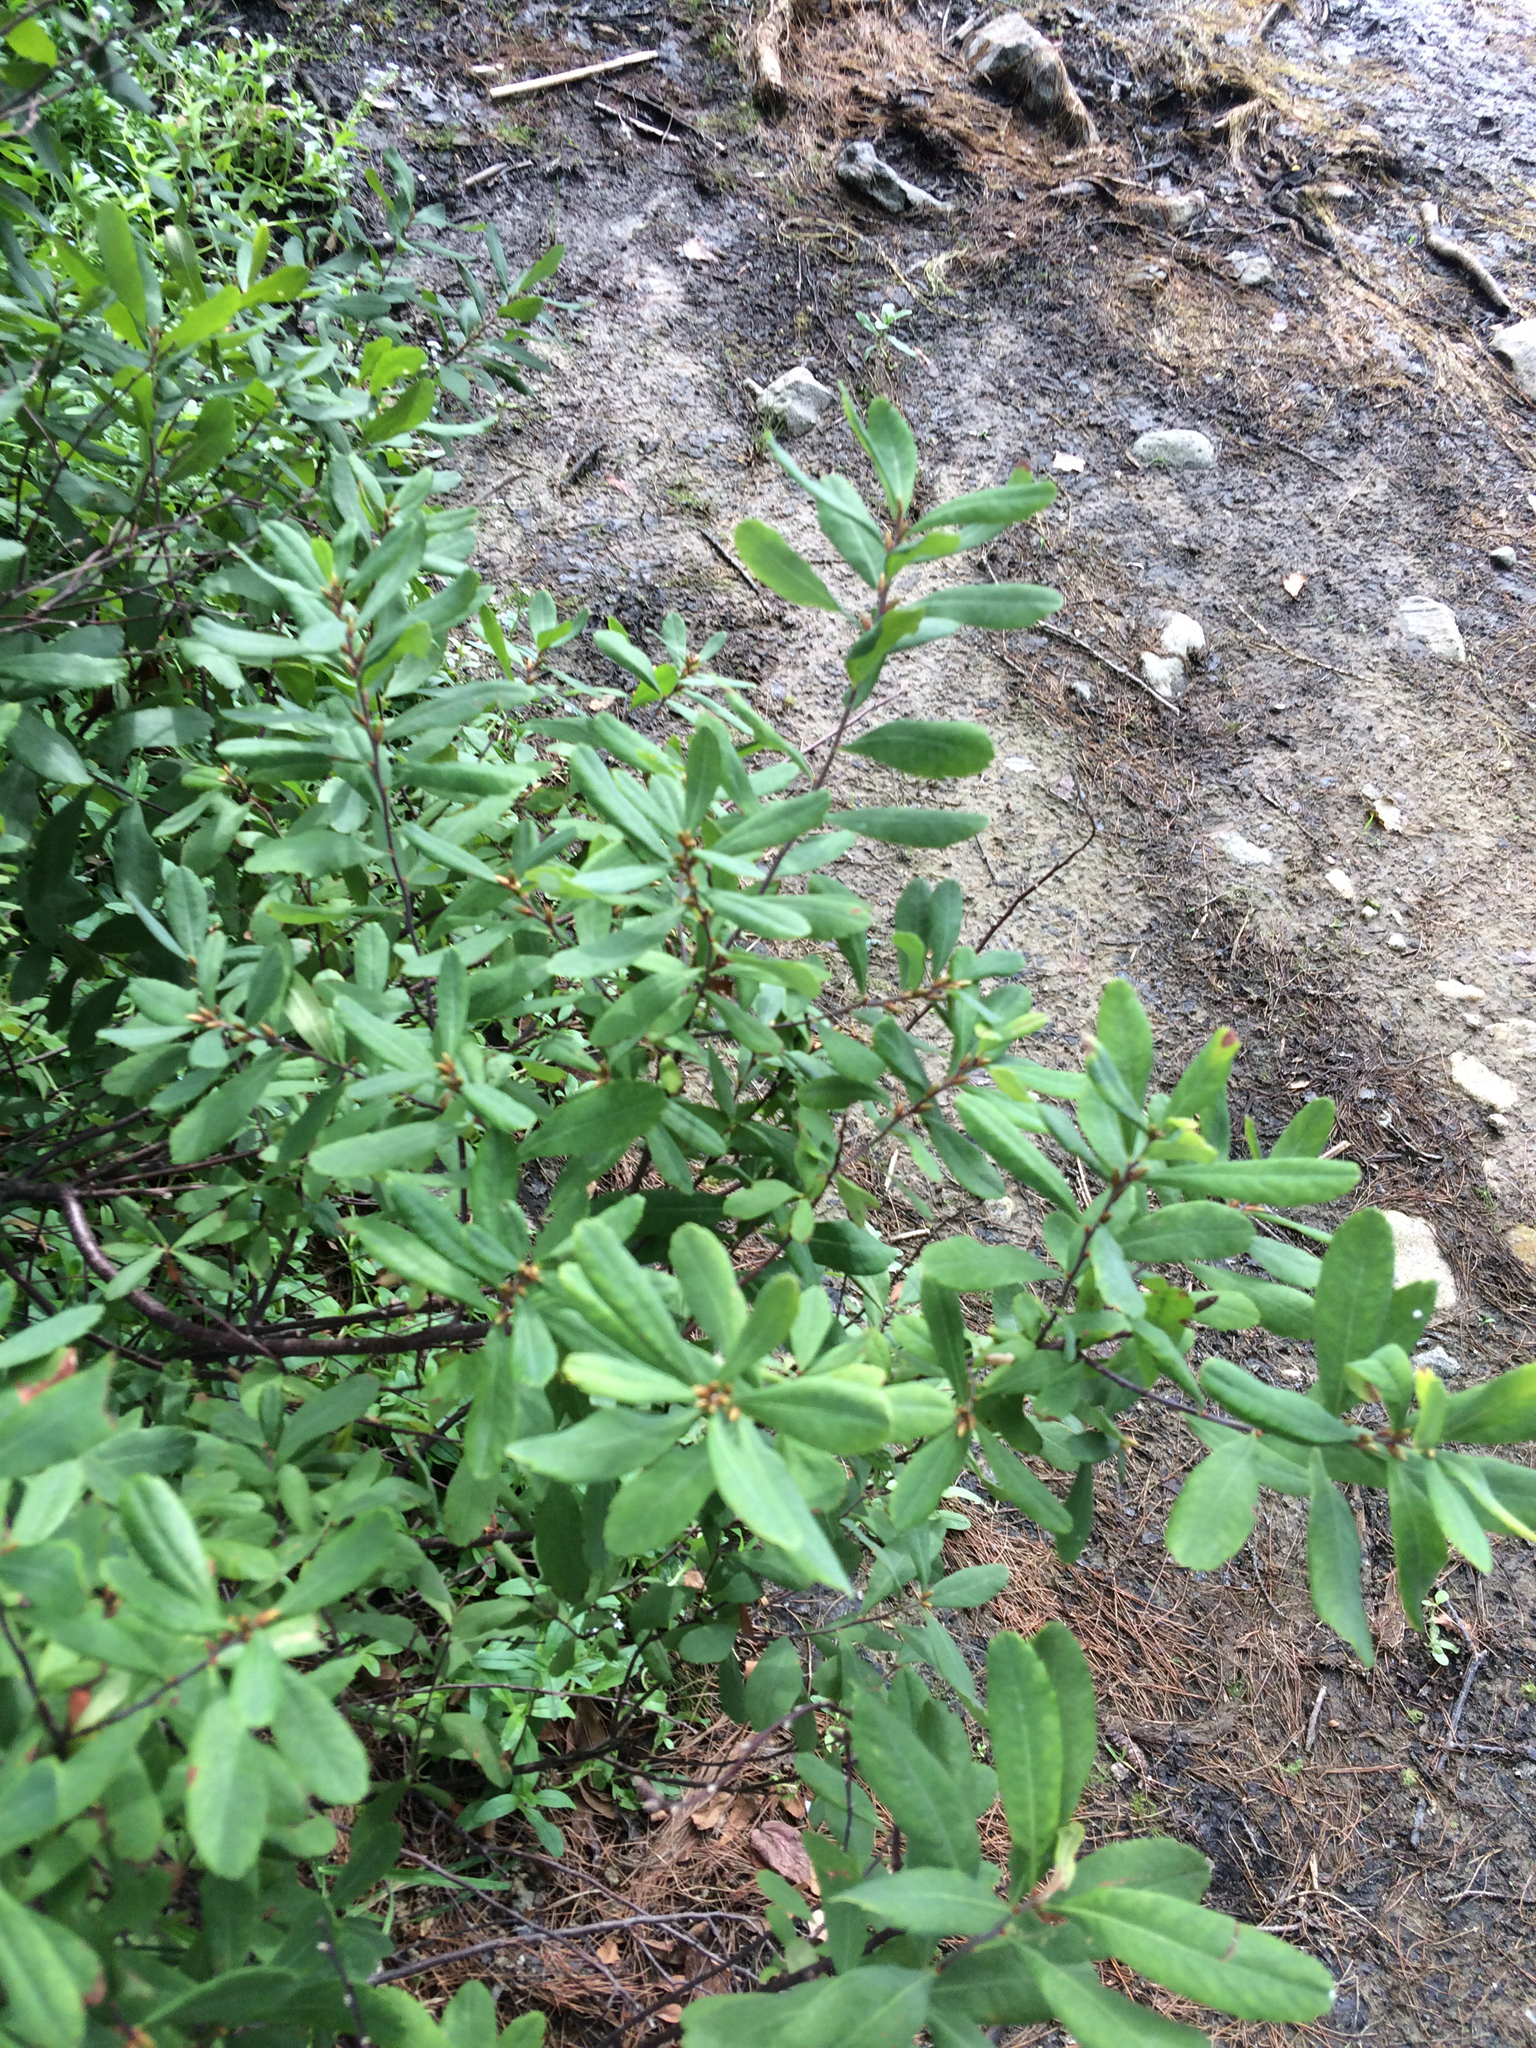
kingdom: Plantae
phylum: Tracheophyta
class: Magnoliopsida
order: Fagales
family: Myricaceae
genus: Myrica
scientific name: Myrica gale
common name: Sweet gale
